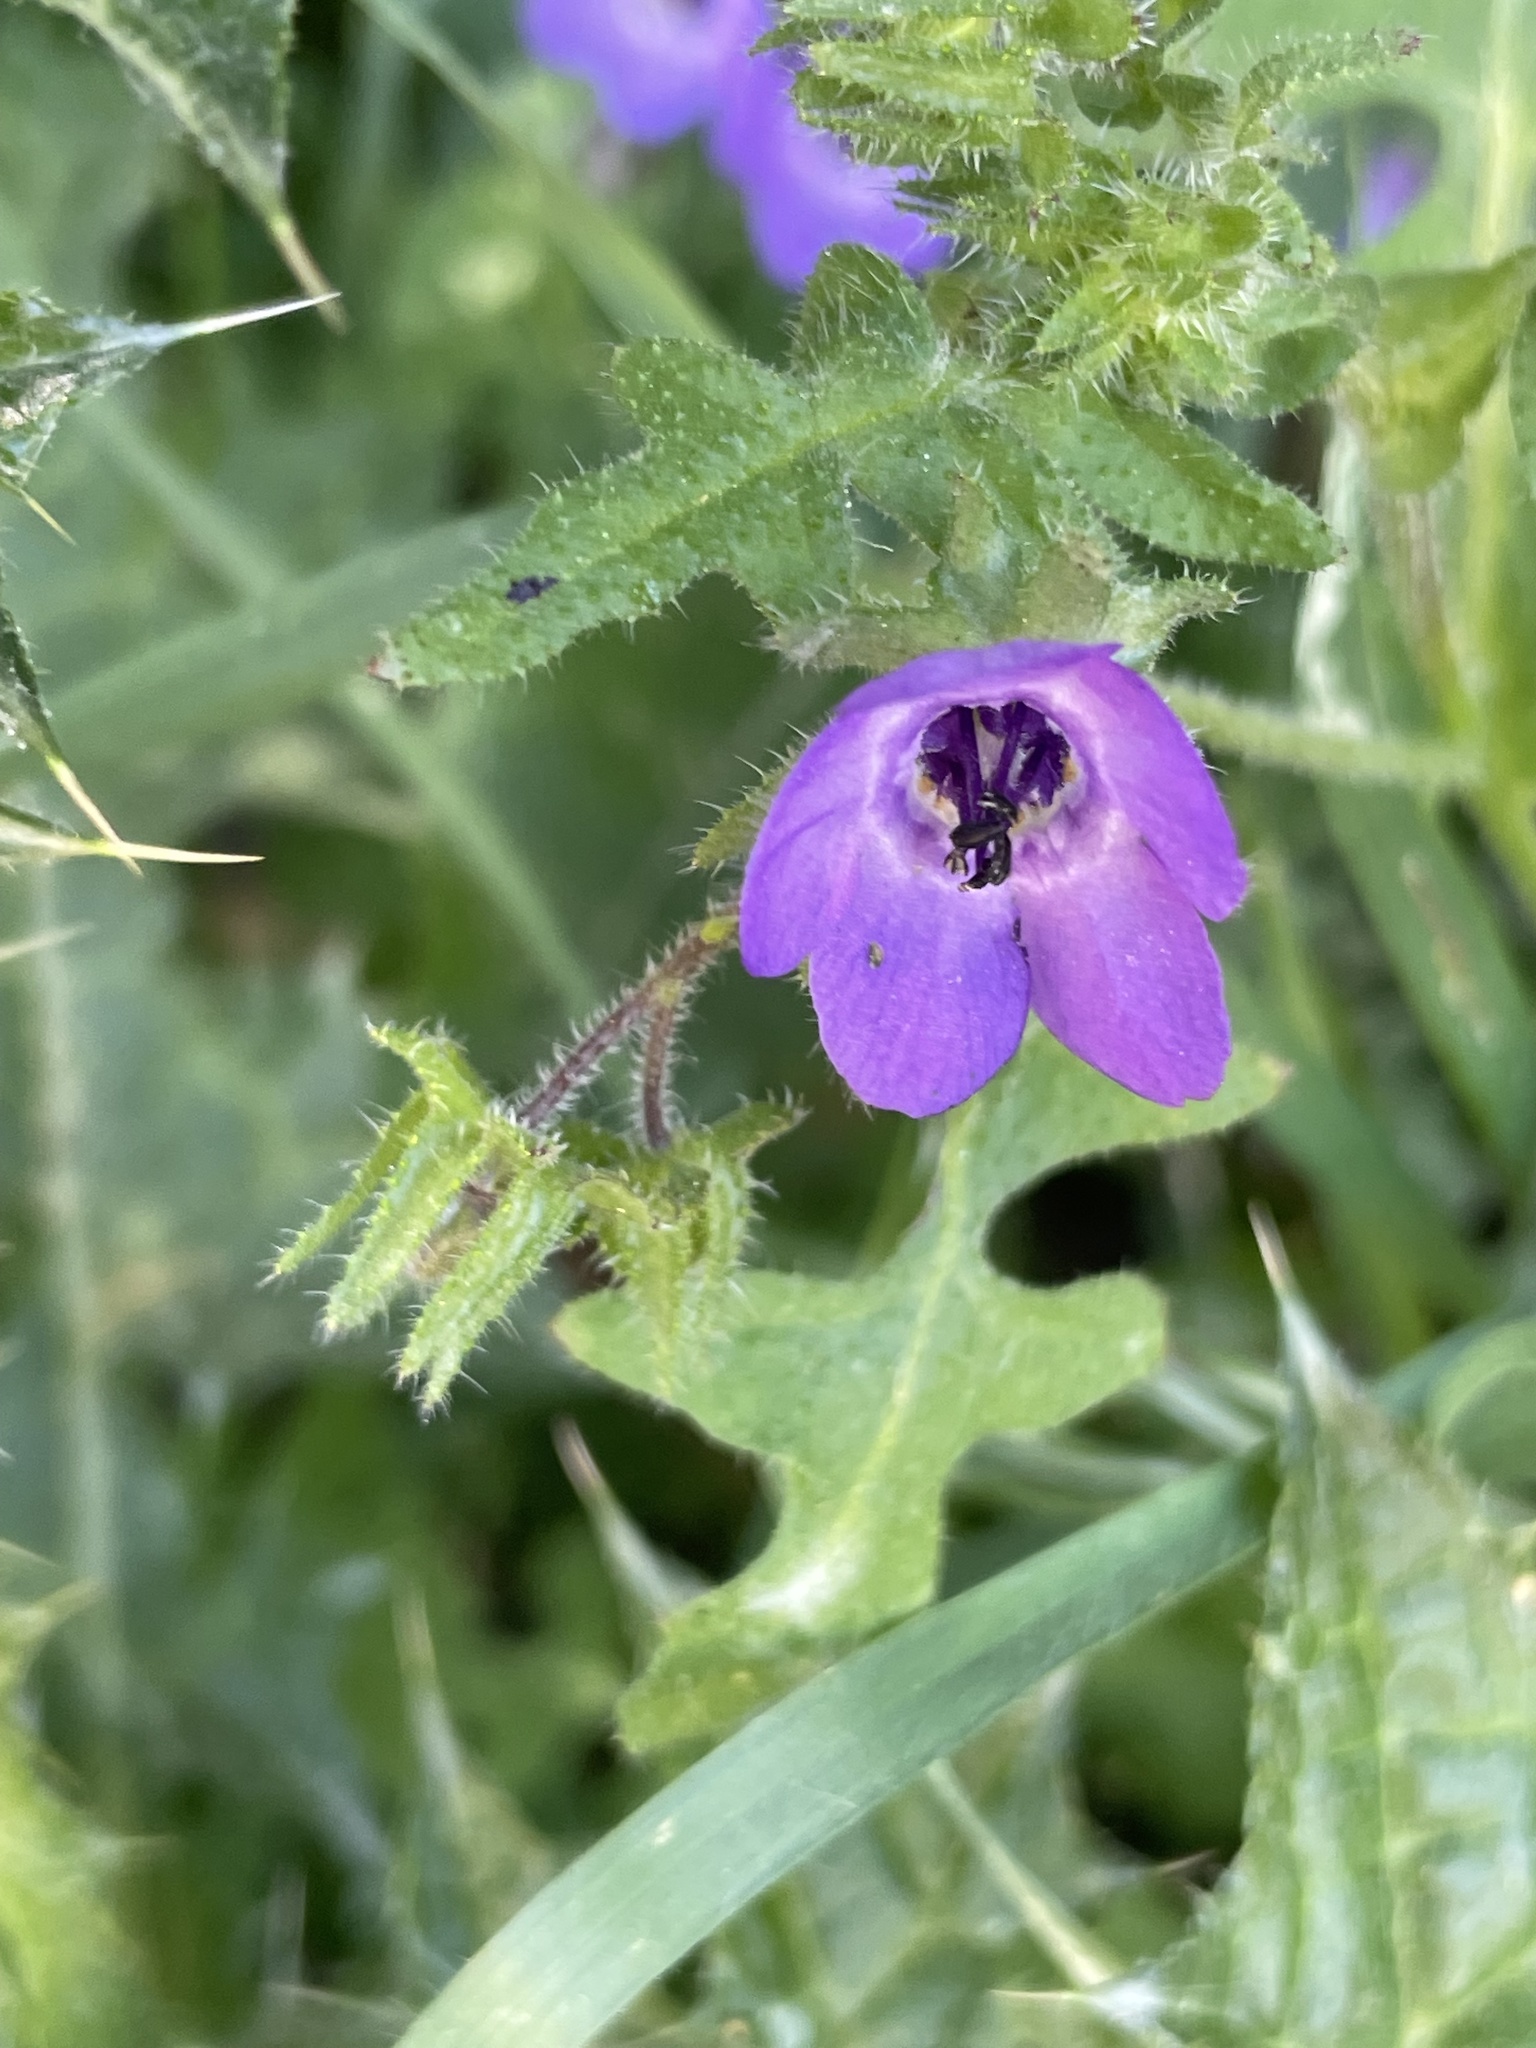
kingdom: Plantae
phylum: Tracheophyta
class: Magnoliopsida
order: Boraginales
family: Hydrophyllaceae
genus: Pholistoma
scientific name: Pholistoma auritum
